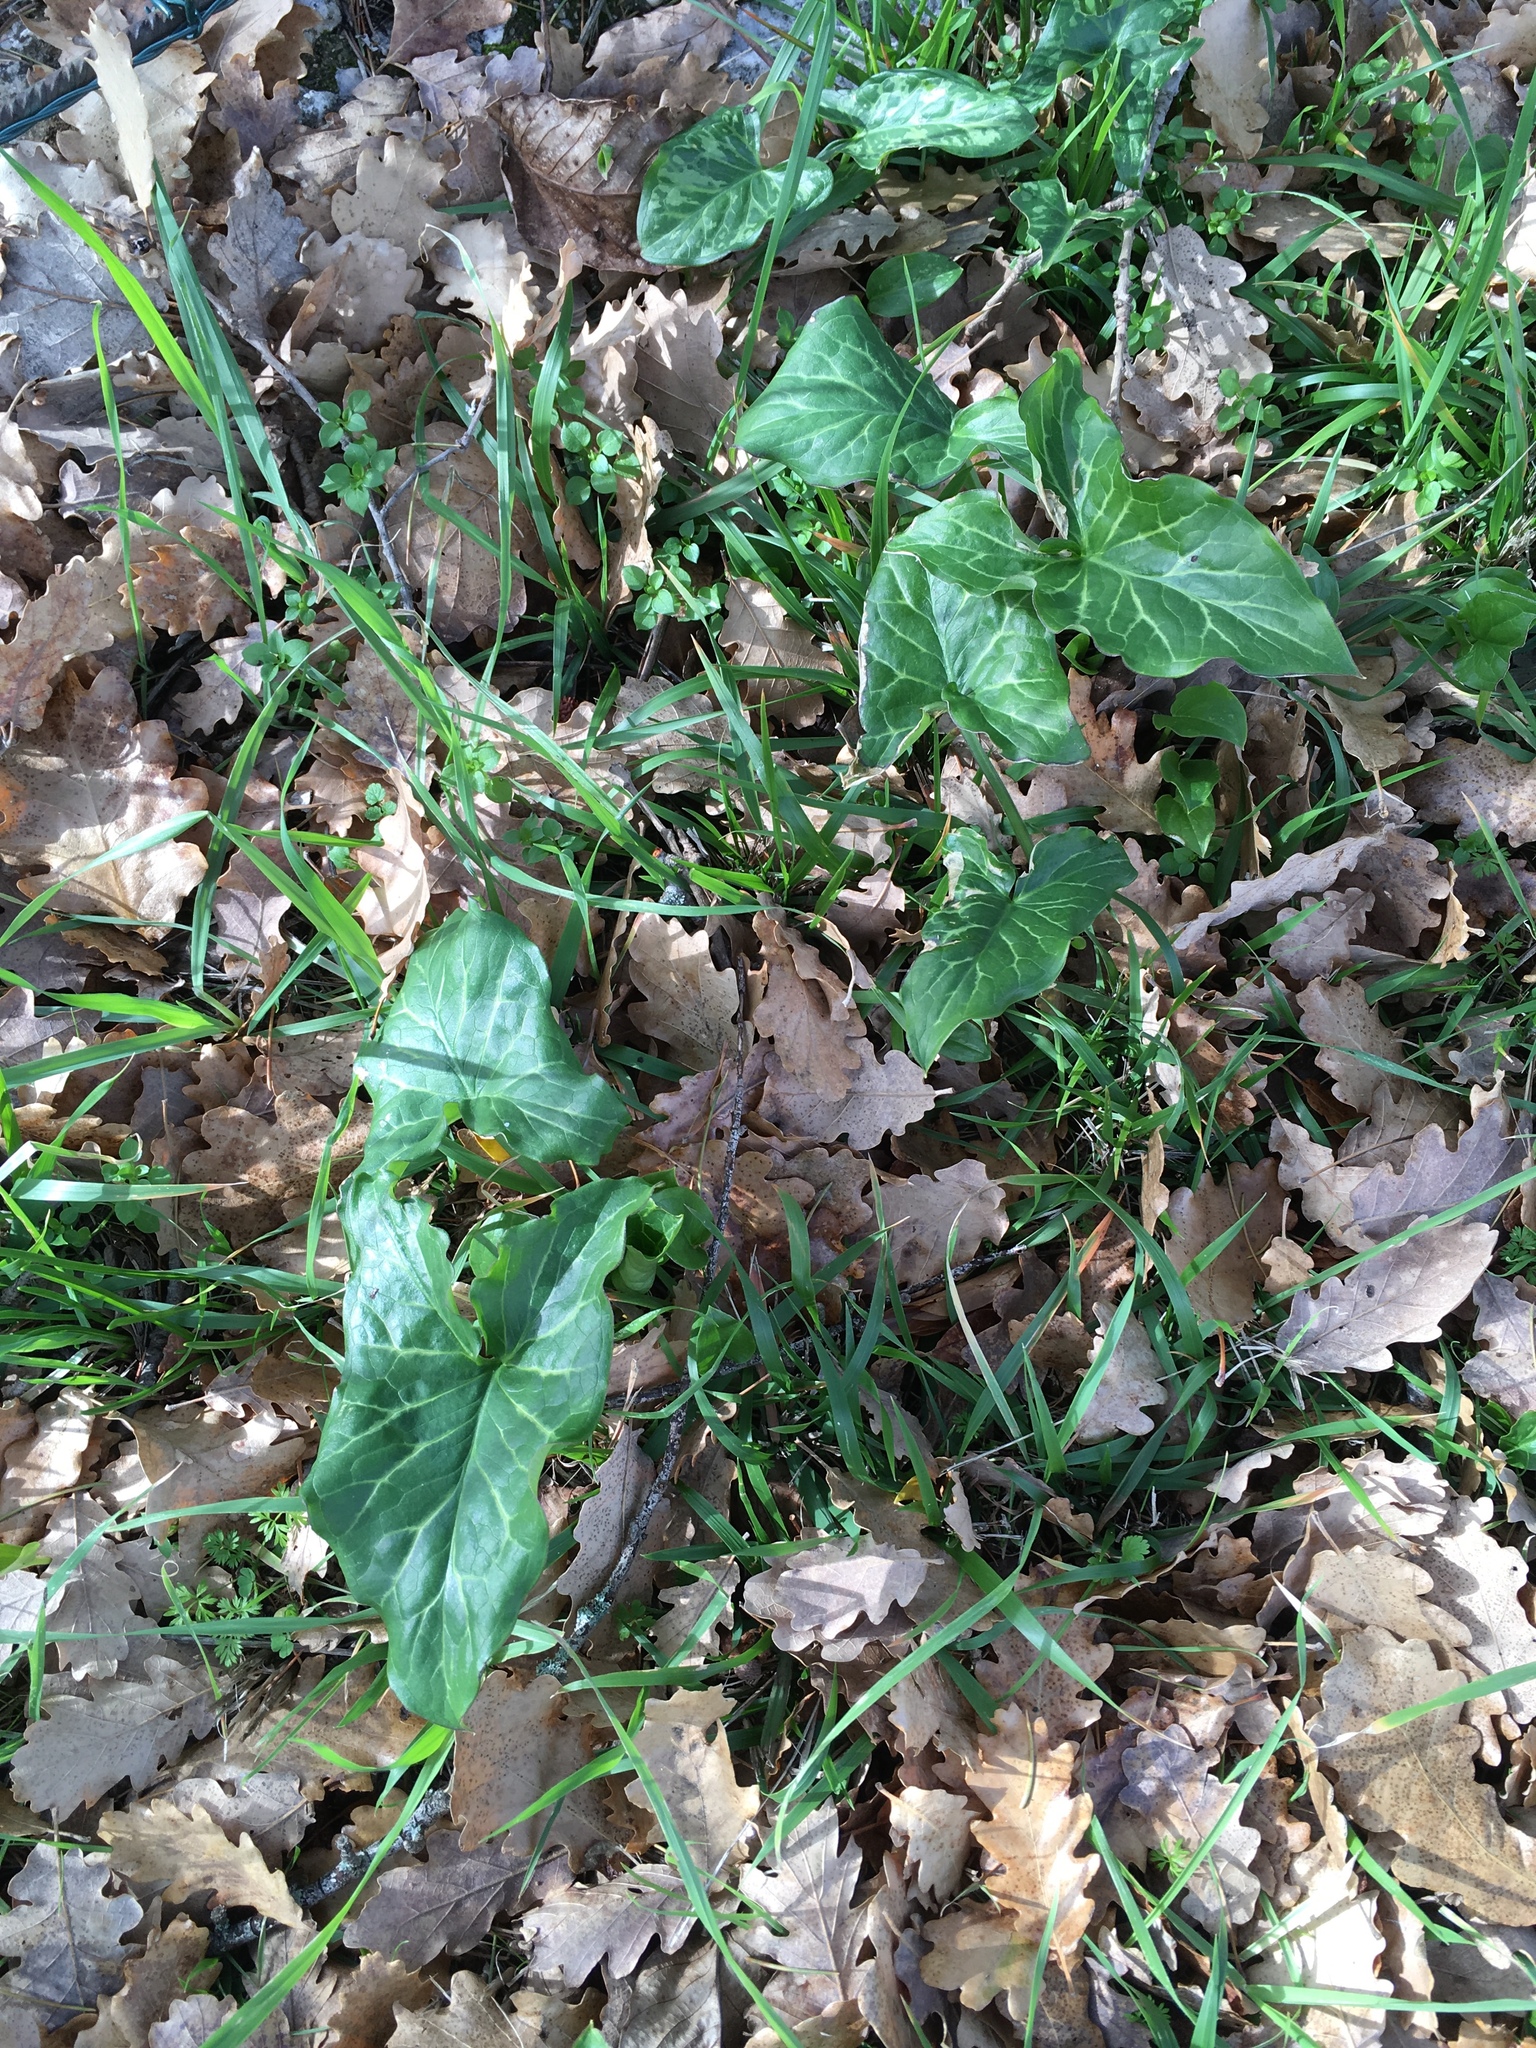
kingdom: Plantae
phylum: Tracheophyta
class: Liliopsida
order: Alismatales
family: Araceae
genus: Arum
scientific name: Arum italicum
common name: Italian lords-and-ladies
